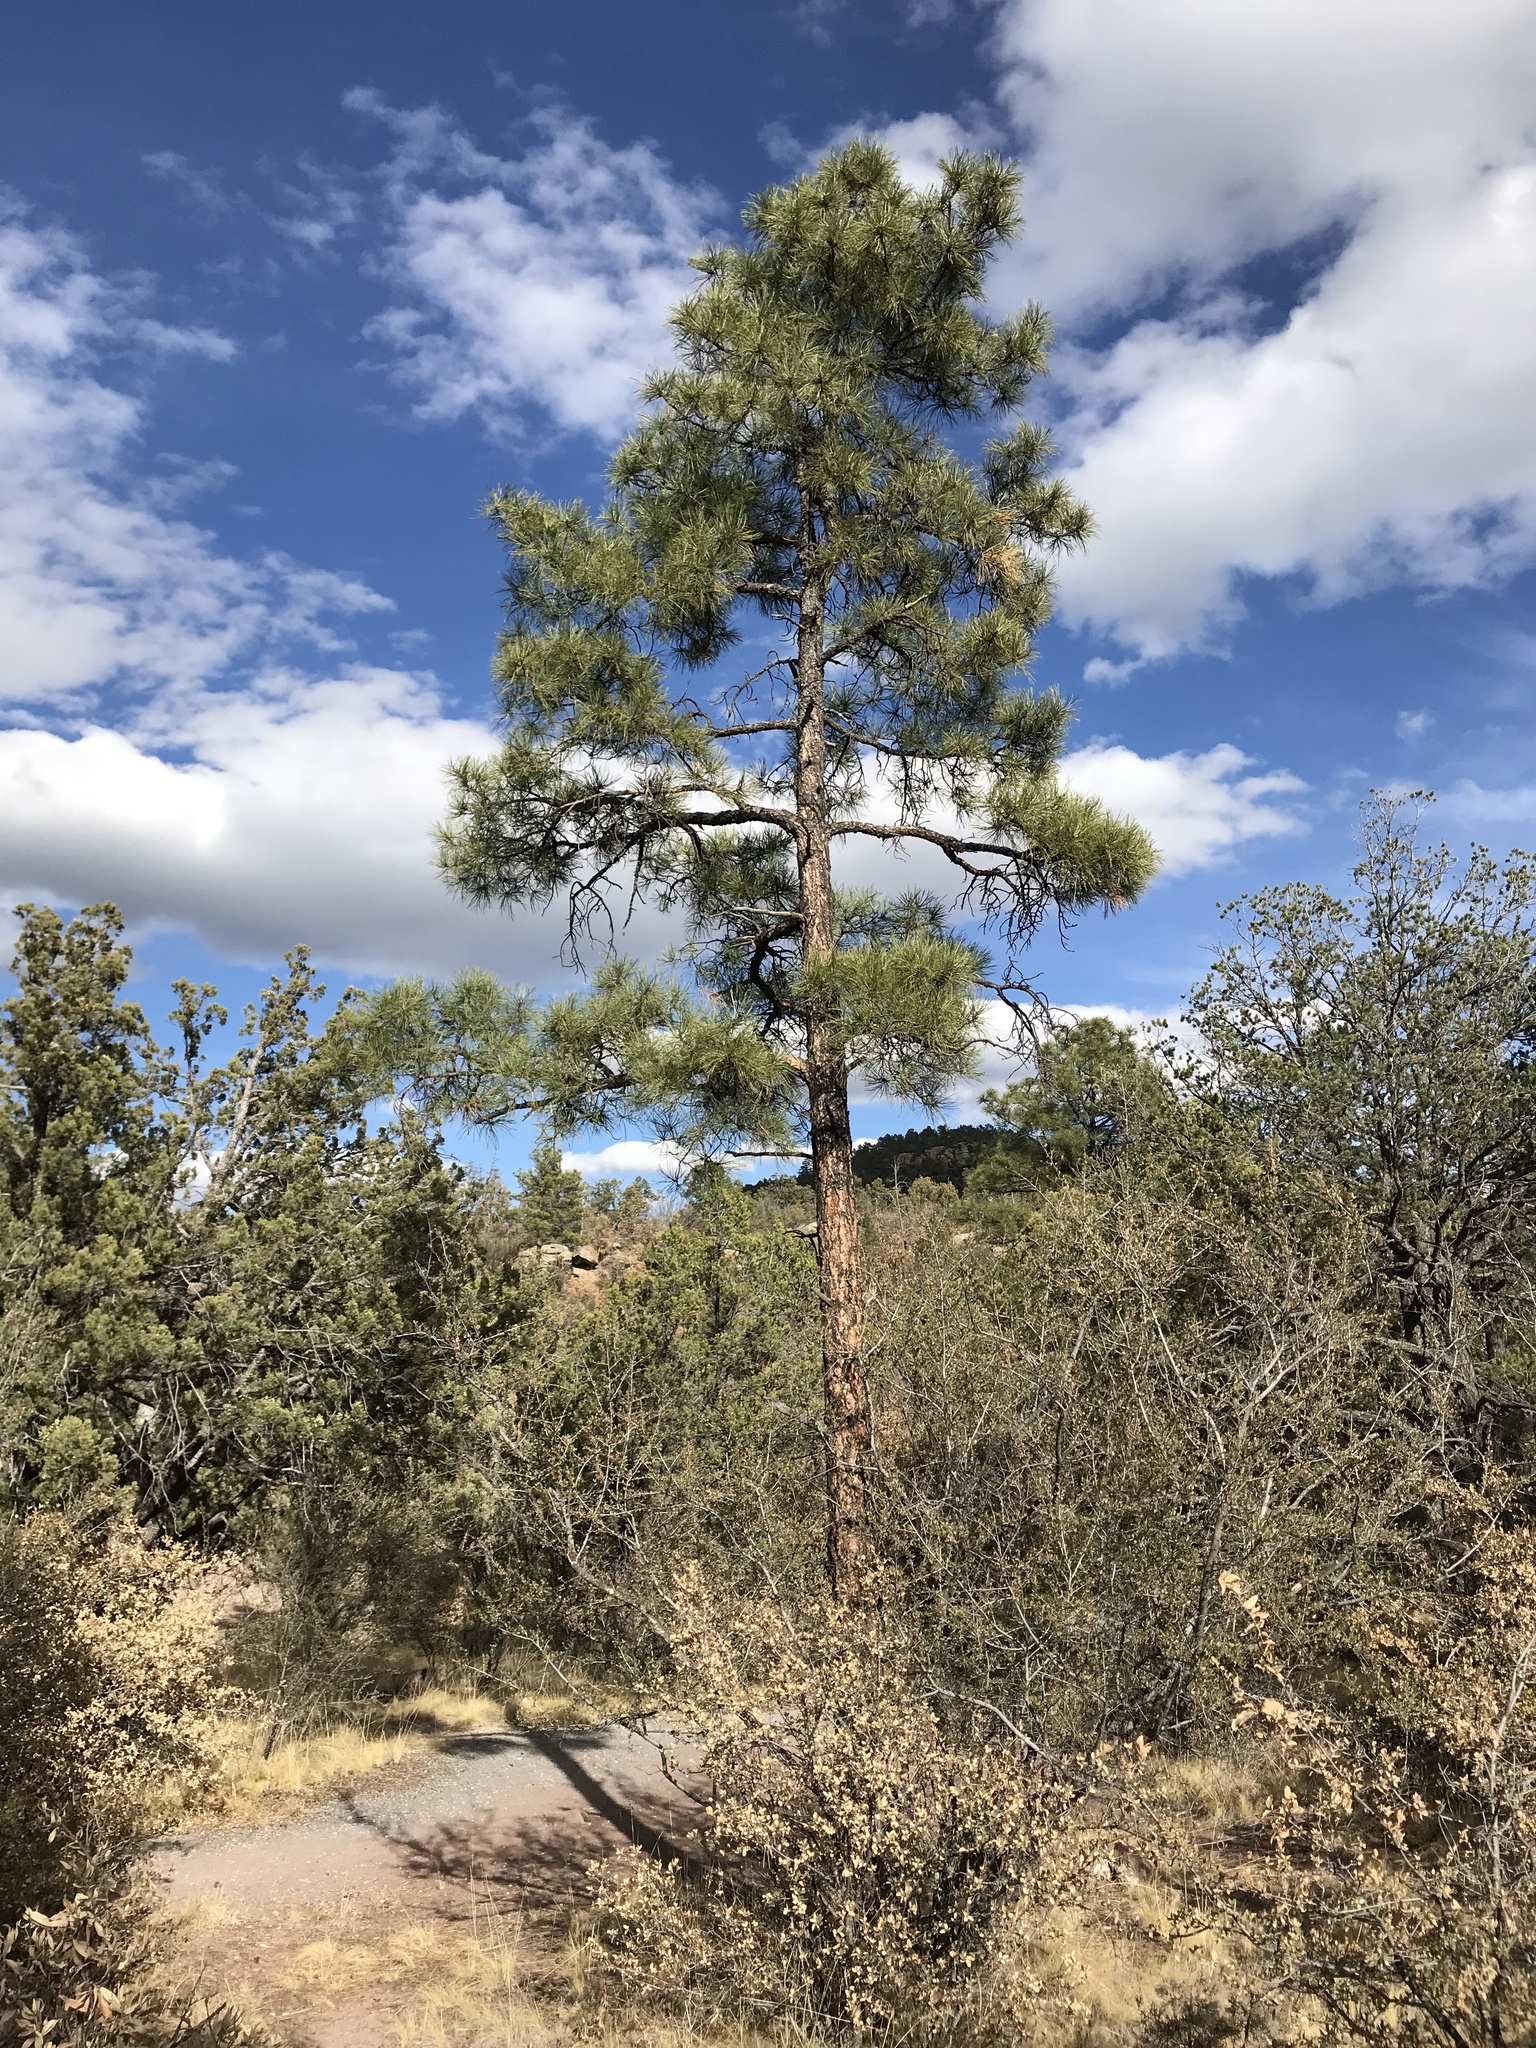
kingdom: Plantae
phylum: Tracheophyta
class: Pinopsida
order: Pinales
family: Pinaceae
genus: Pinus
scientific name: Pinus ponderosa
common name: Western yellow-pine
